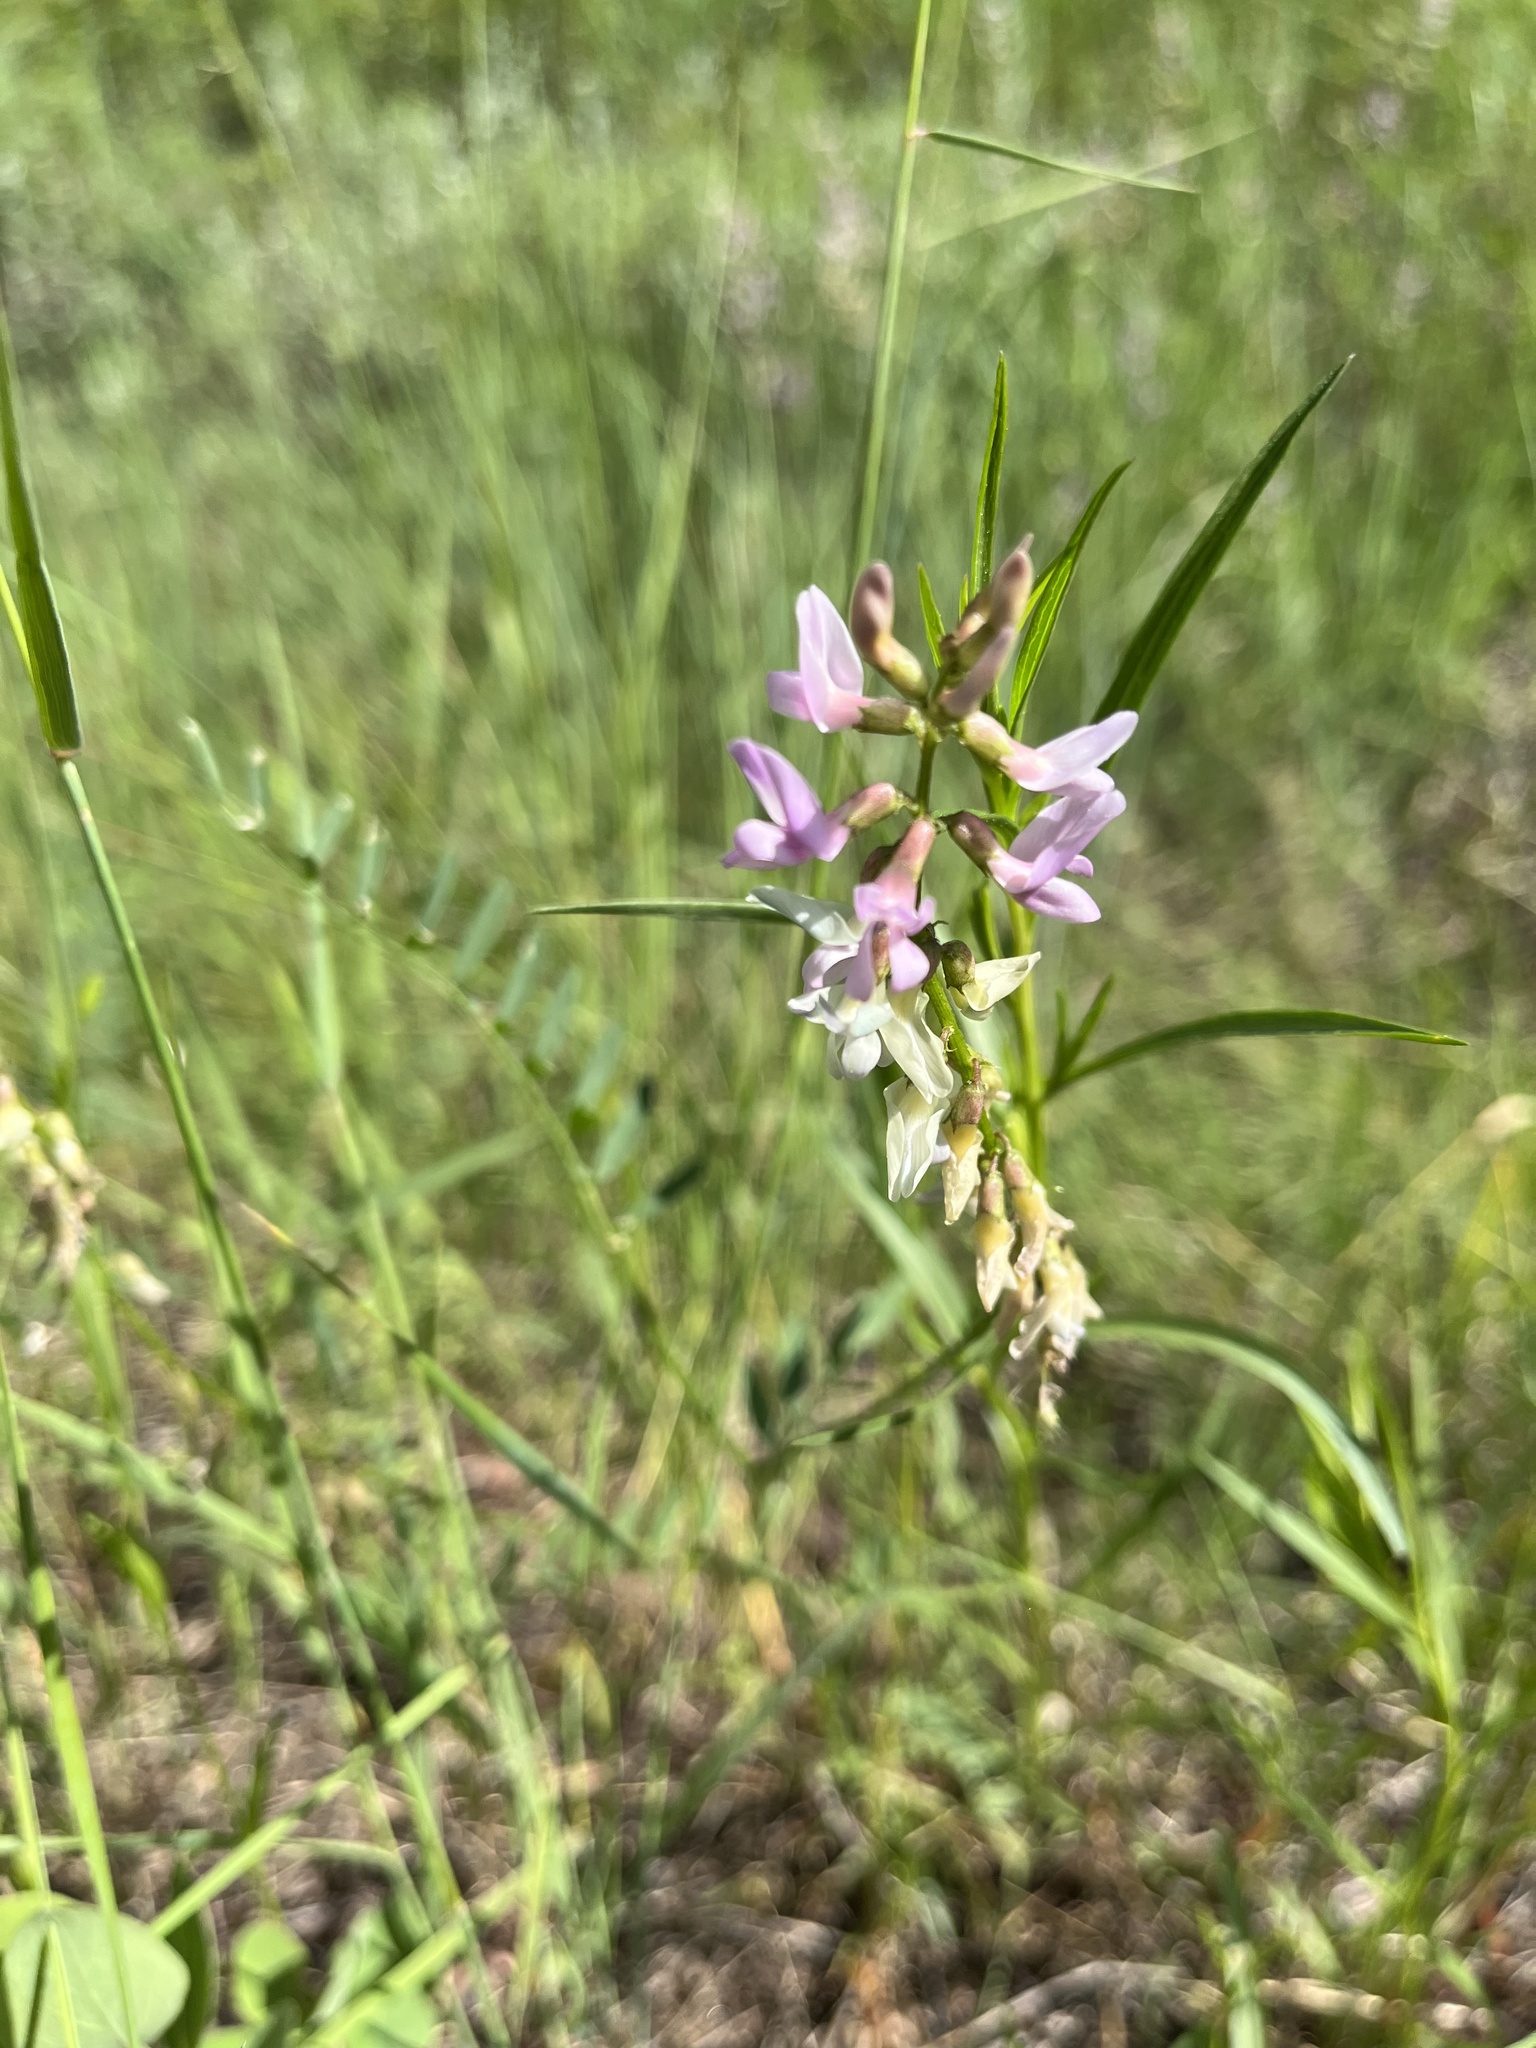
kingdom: Plantae
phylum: Tracheophyta
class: Magnoliopsida
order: Fabales
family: Fabaceae
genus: Astragalus
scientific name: Astragalus flexuosus
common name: Pliant milk-vetch
